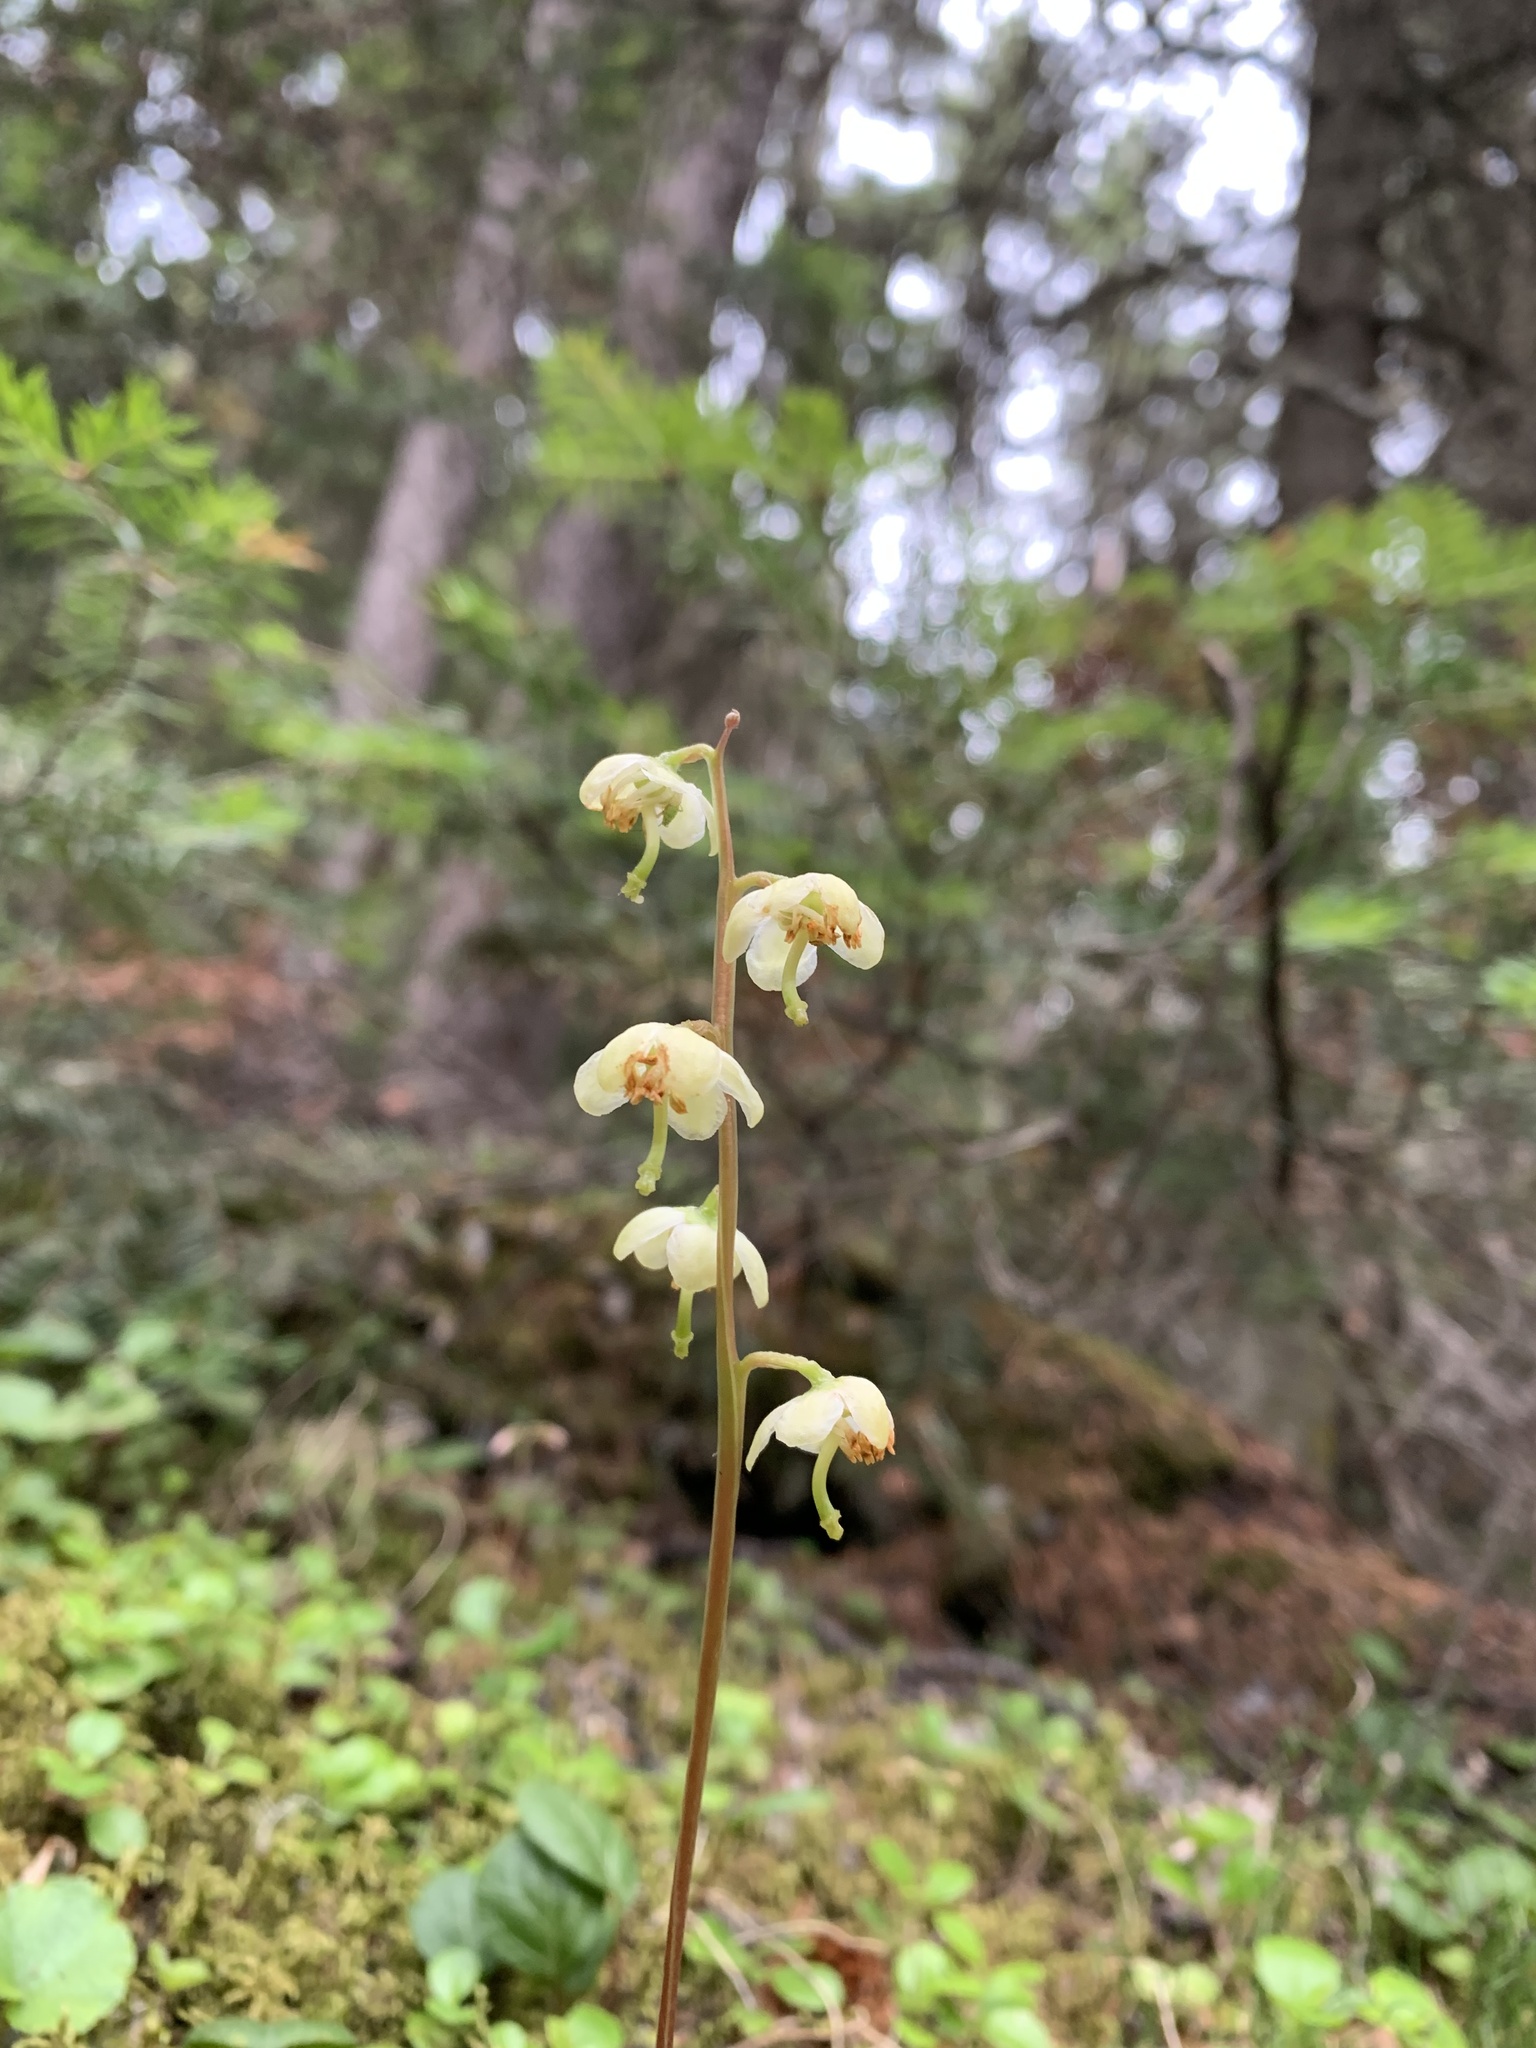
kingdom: Plantae
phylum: Tracheophyta
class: Magnoliopsida
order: Ericales
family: Ericaceae
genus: Pyrola
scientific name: Pyrola chlorantha
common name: Green wintergreen
